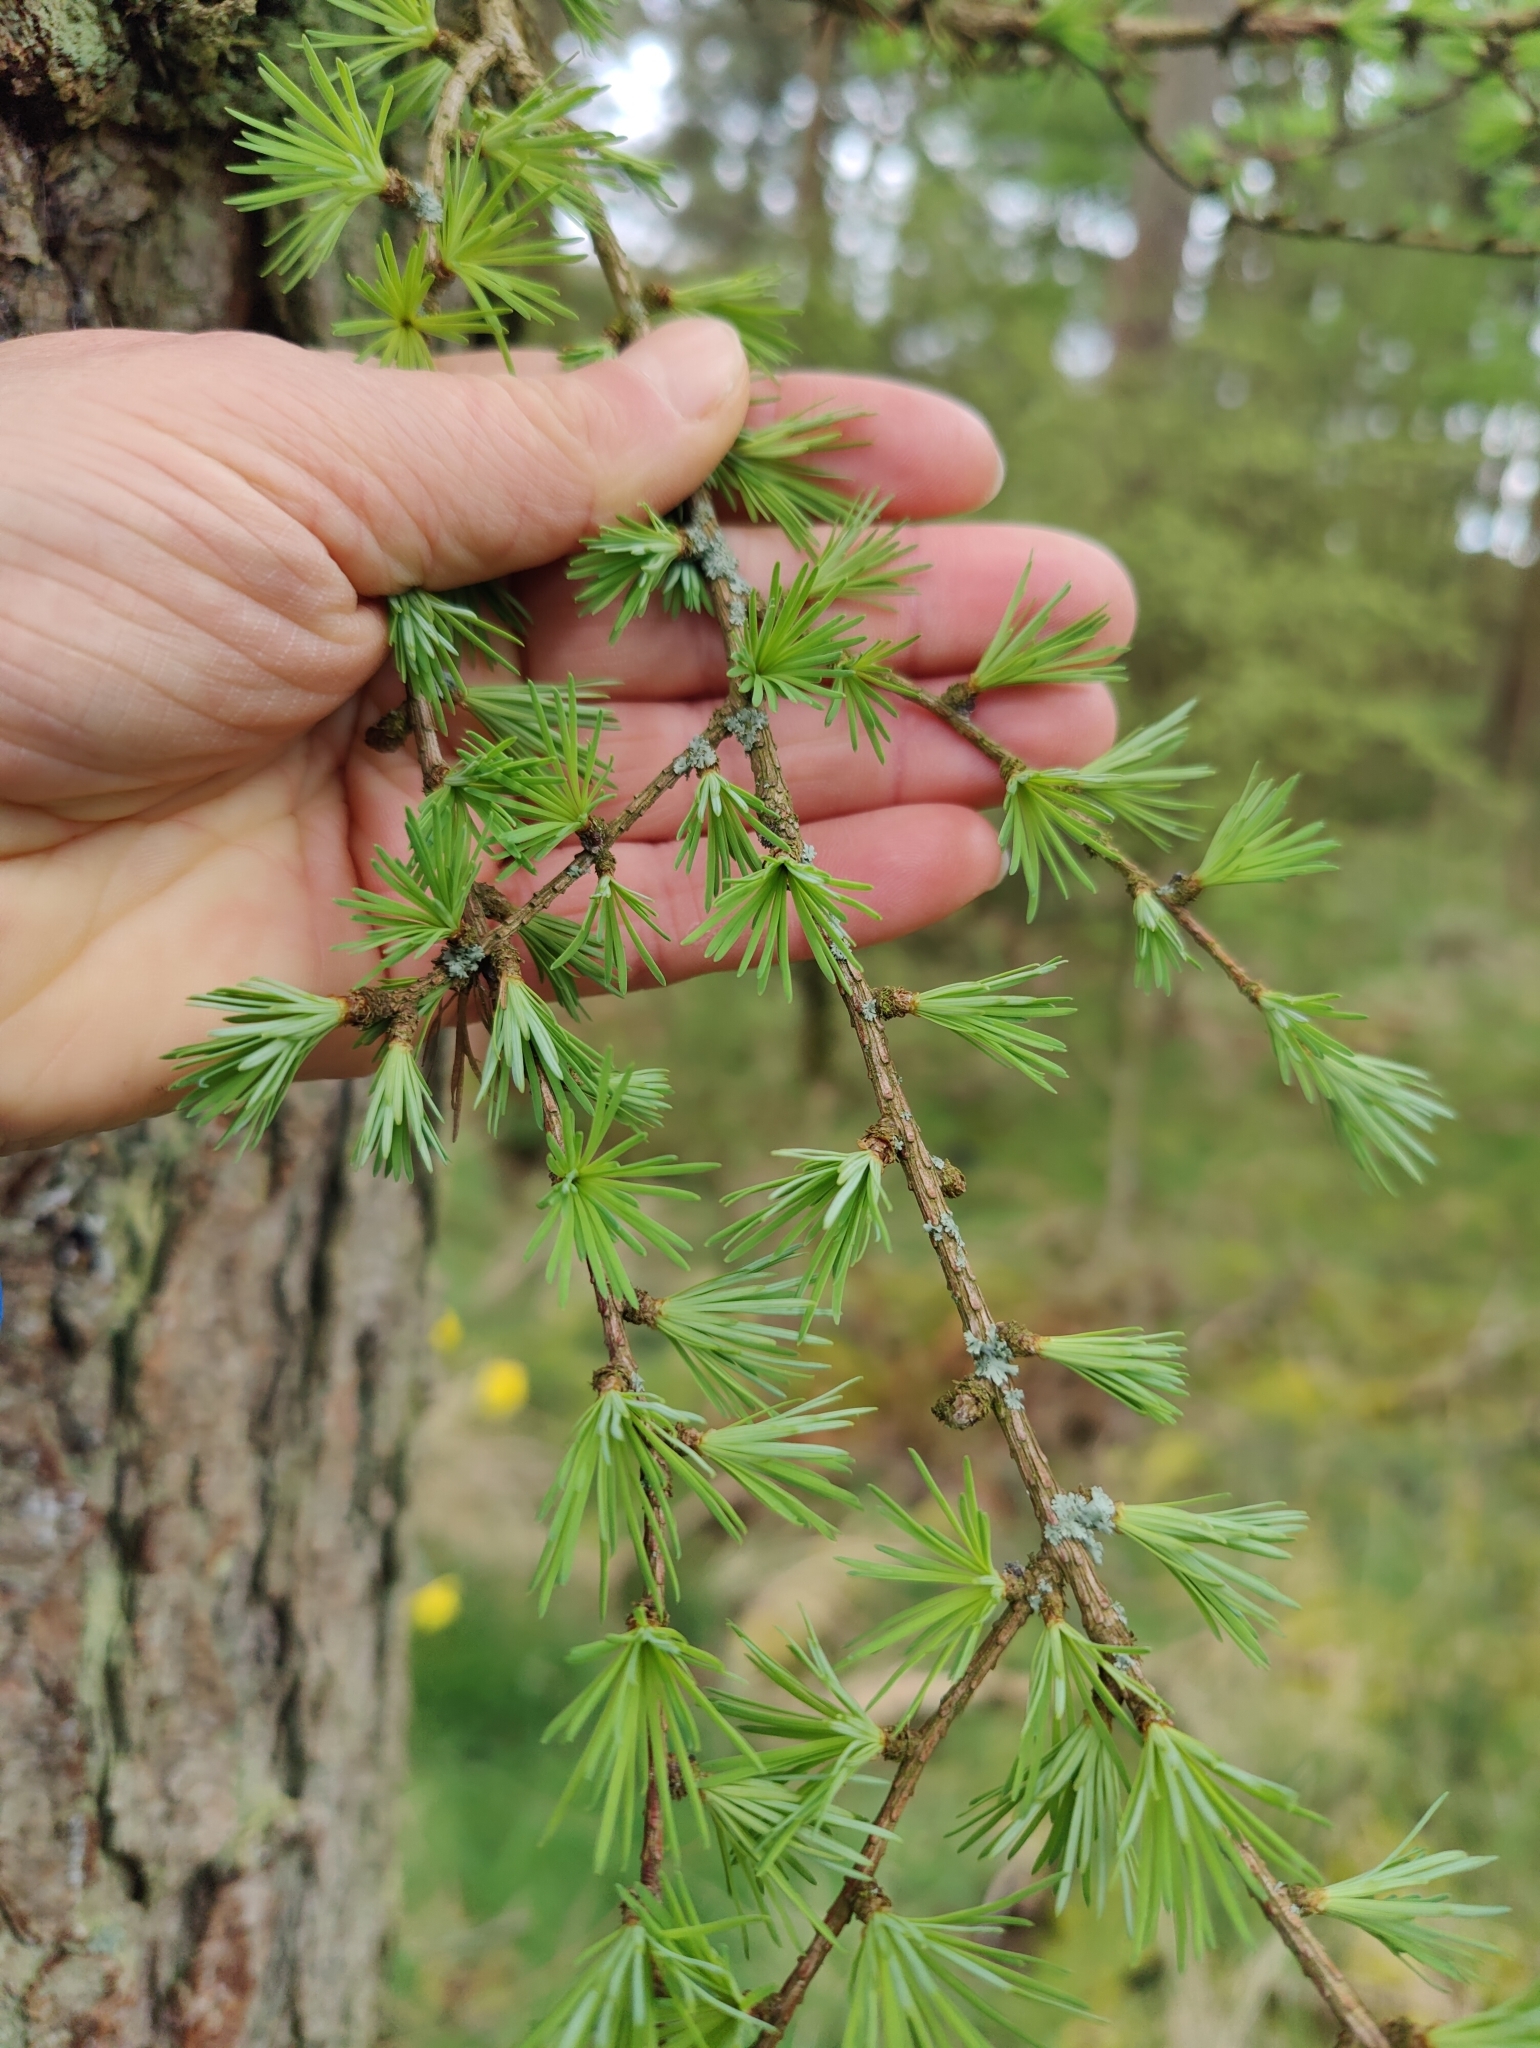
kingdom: Plantae
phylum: Tracheophyta
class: Pinopsida
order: Pinales
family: Pinaceae
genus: Larix
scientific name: Larix decidua
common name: European larch
